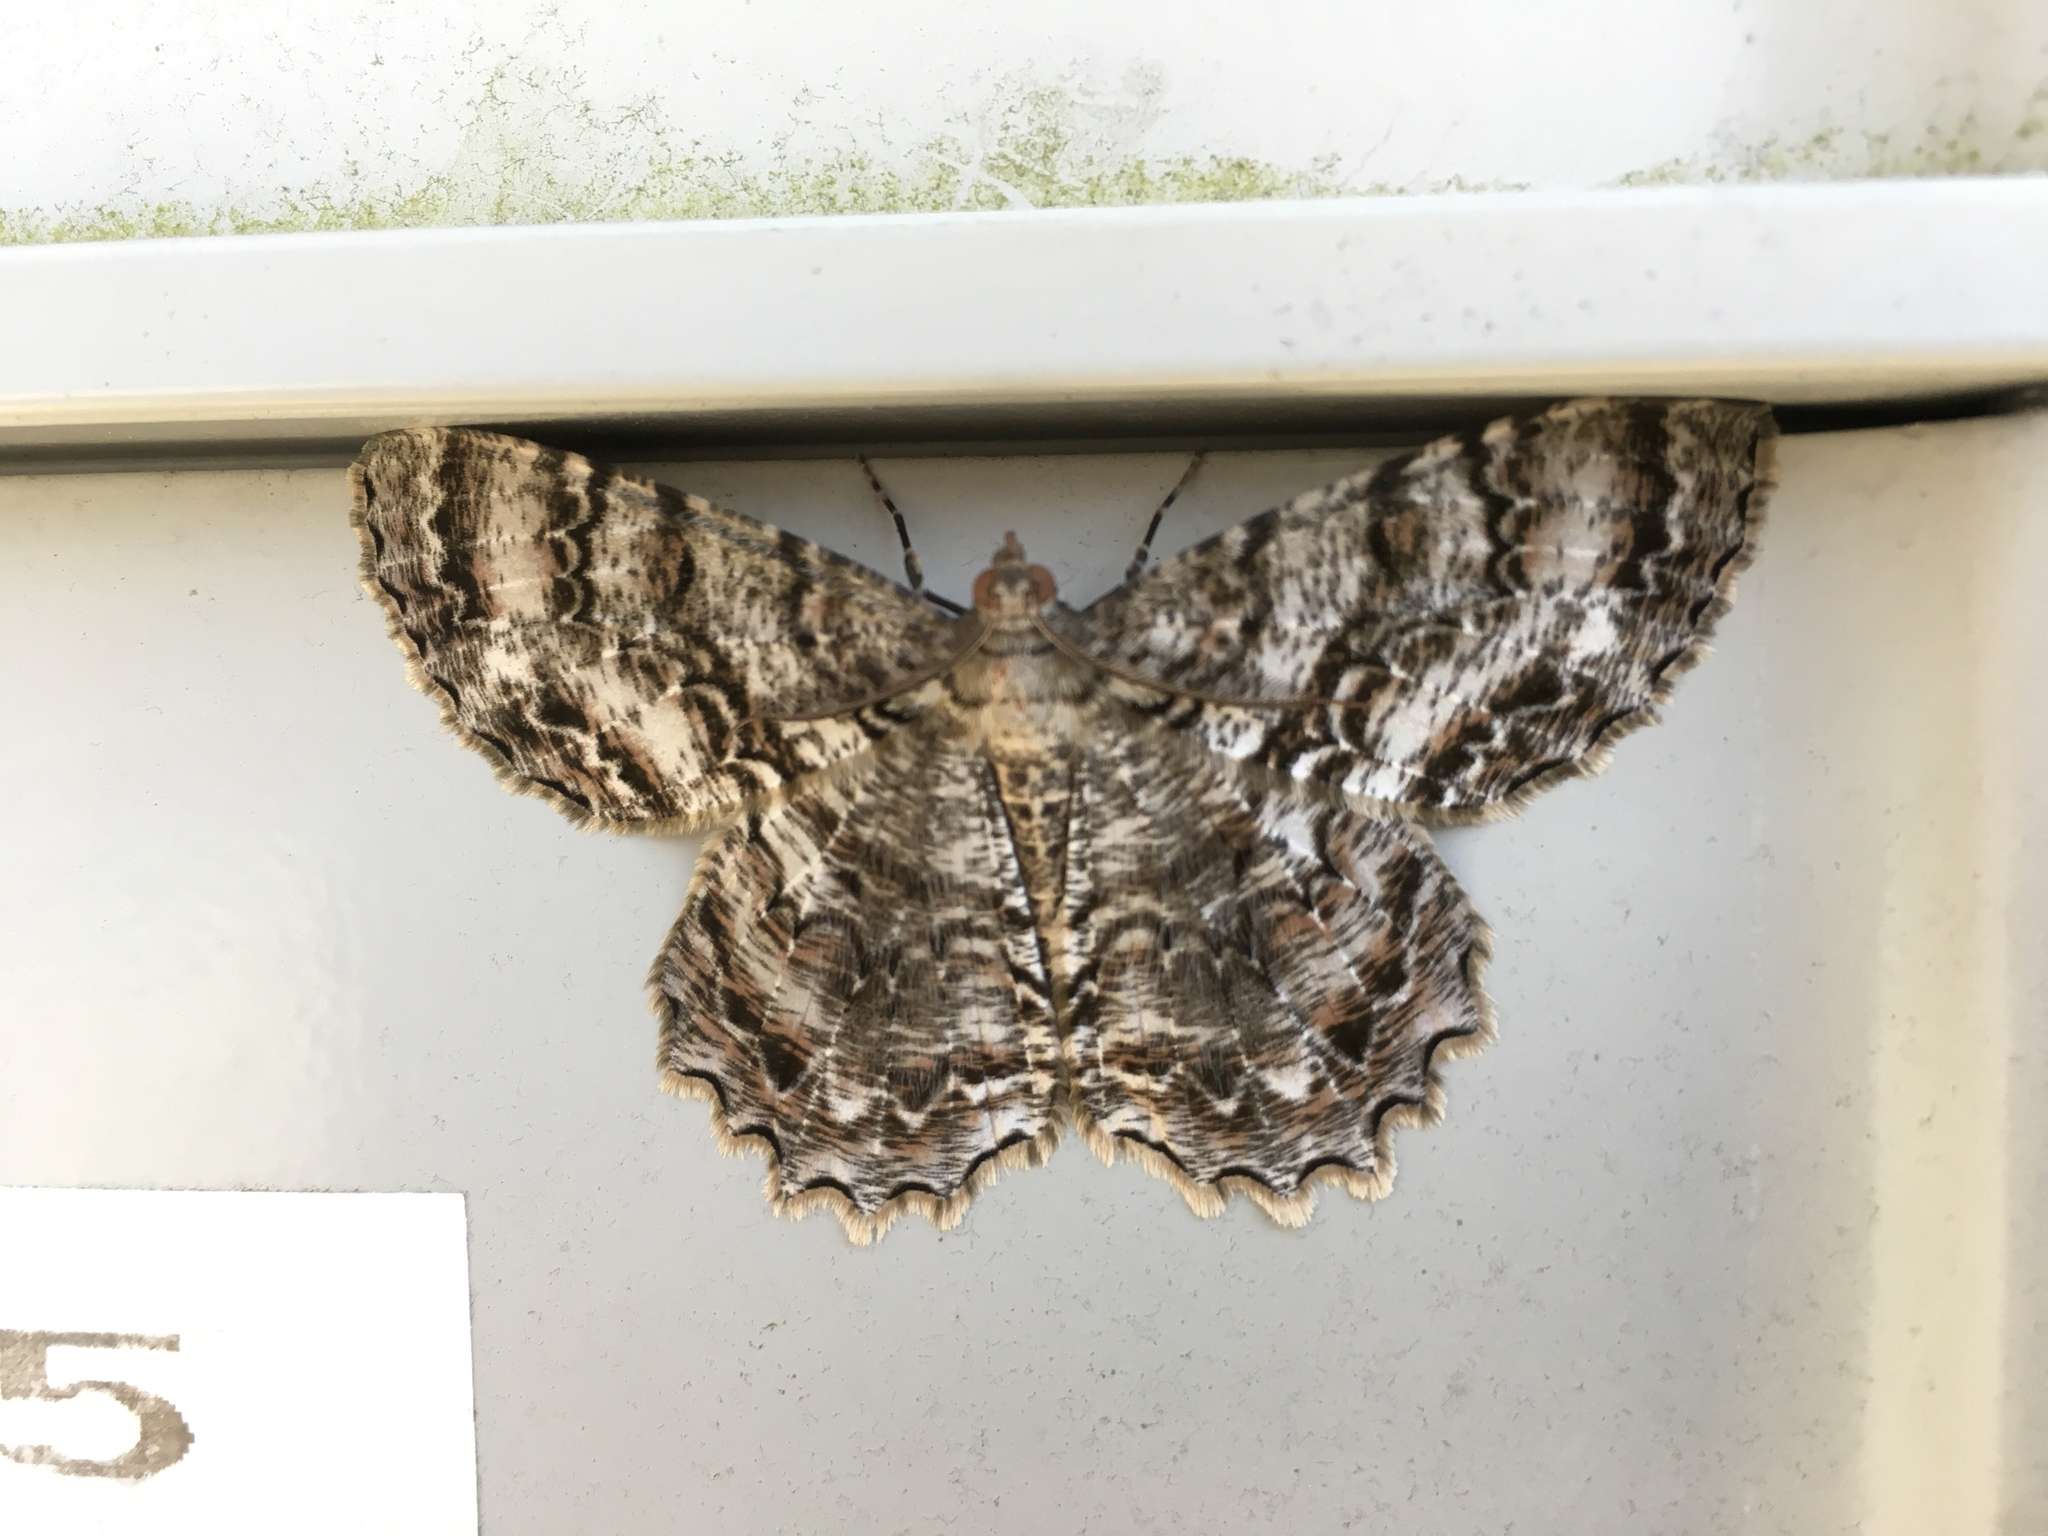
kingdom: Animalia
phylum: Arthropoda
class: Insecta
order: Lepidoptera
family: Geometridae
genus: Epimecis
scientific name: Epimecis hortaria
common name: Tulip-tree beauty
